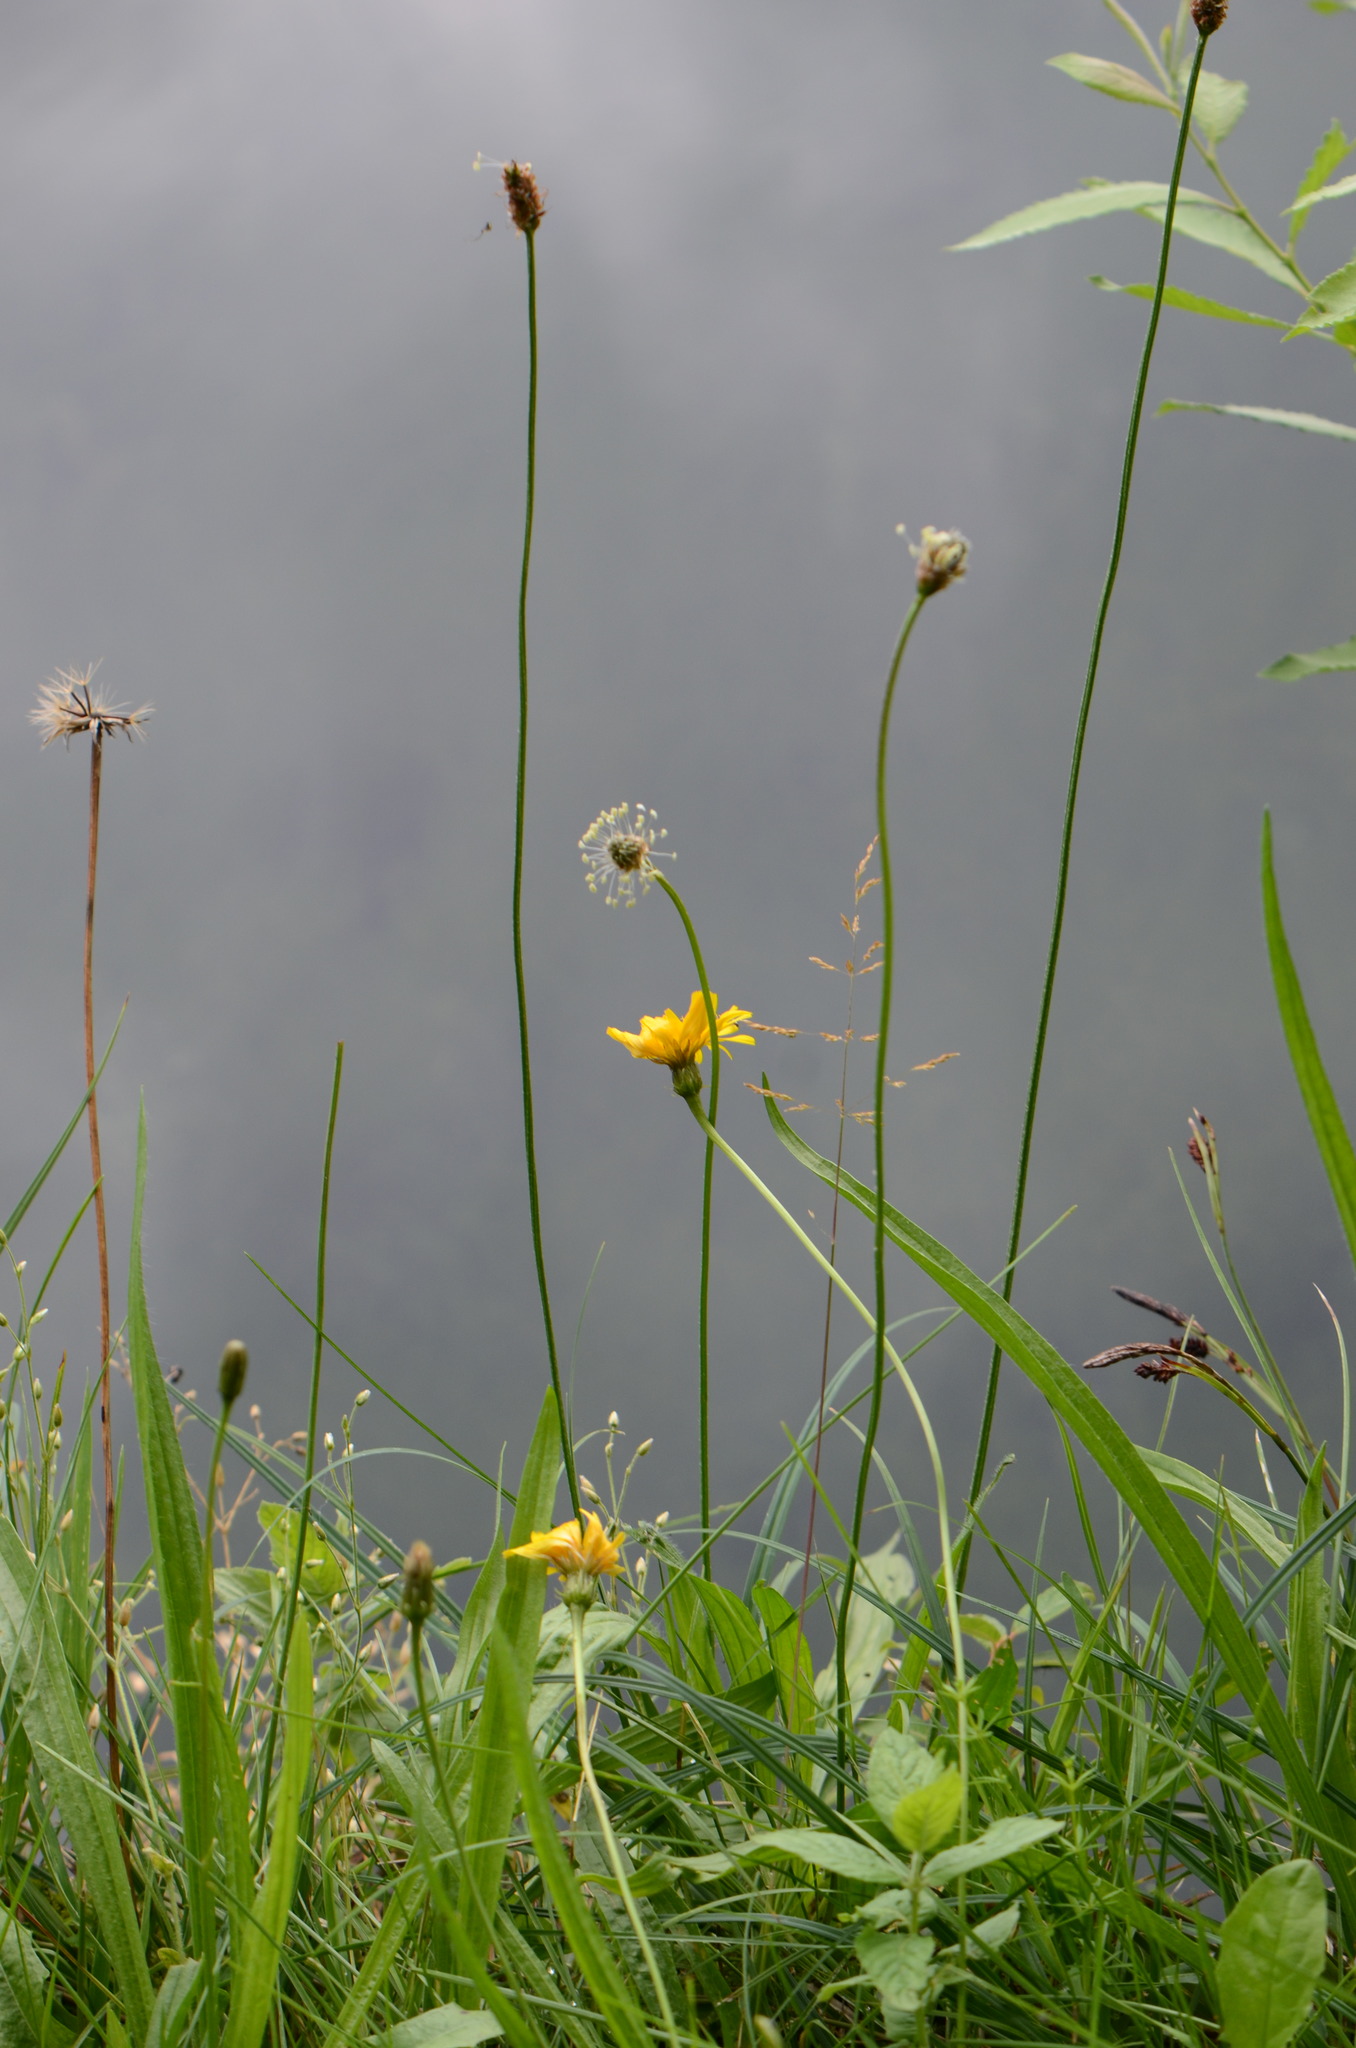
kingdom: Plantae
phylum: Tracheophyta
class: Magnoliopsida
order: Lamiales
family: Plantaginaceae
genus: Plantago
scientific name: Plantago lanceolata
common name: Ribwort plantain
